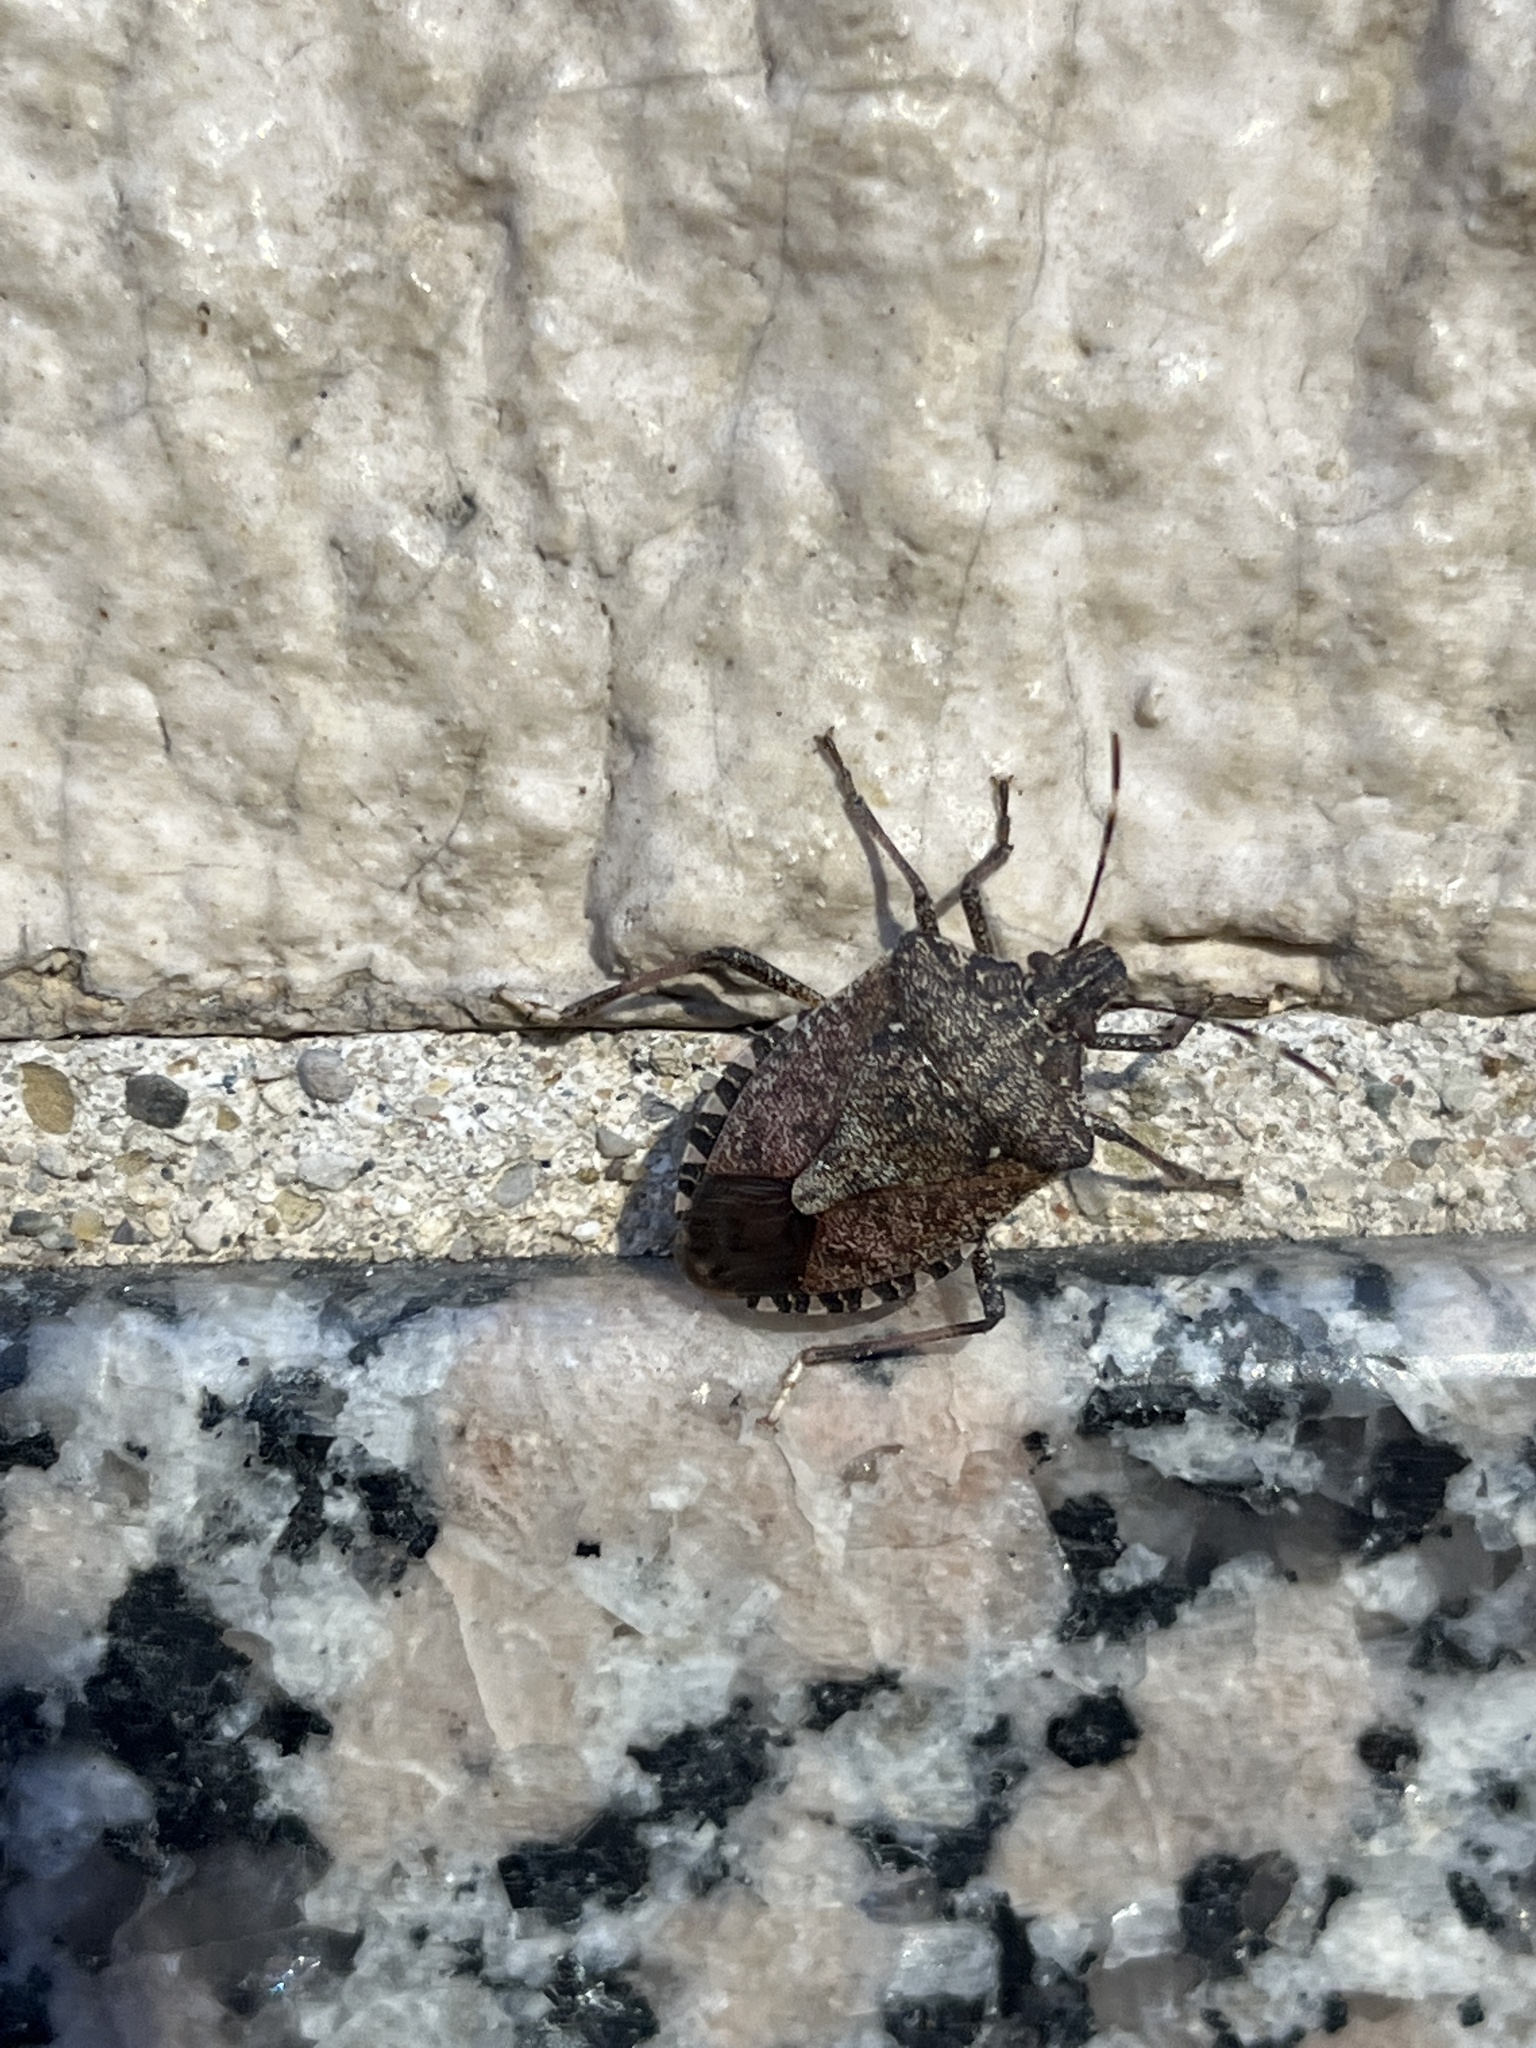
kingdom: Animalia
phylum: Arthropoda
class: Insecta
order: Hemiptera
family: Pentatomidae
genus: Halyomorpha
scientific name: Halyomorpha halys
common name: Brown marmorated stink bug
